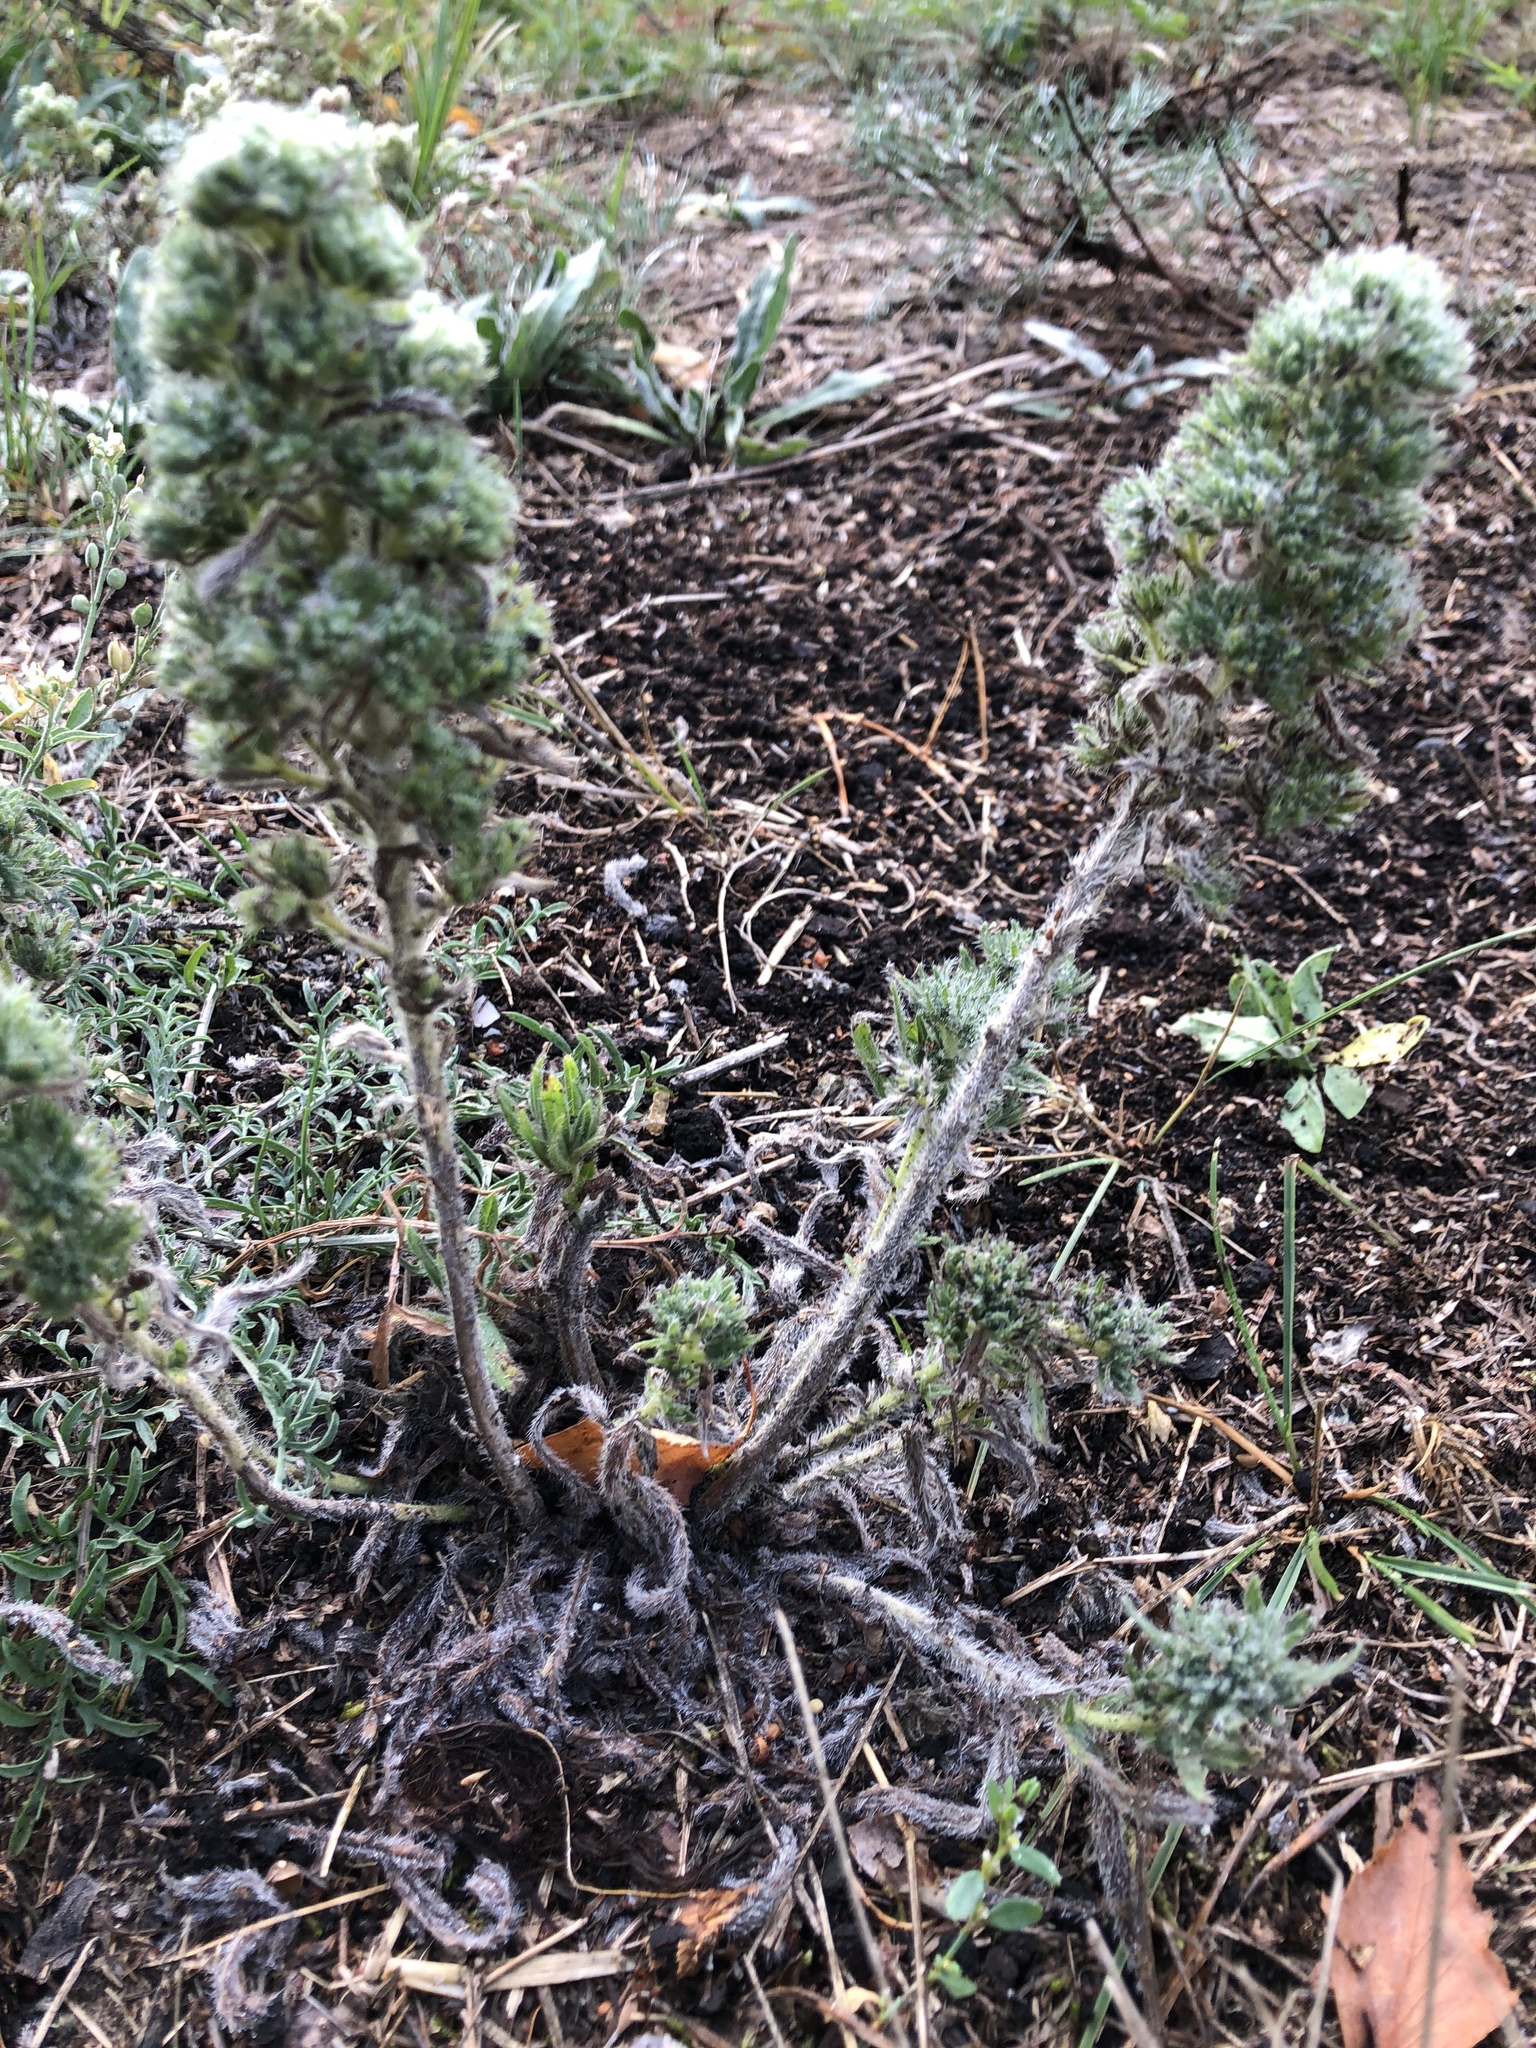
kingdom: Animalia
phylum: Arthropoda
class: Arachnida
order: Trombidiformes
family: Eriophyidae
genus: Aceria
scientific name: Aceria echii
